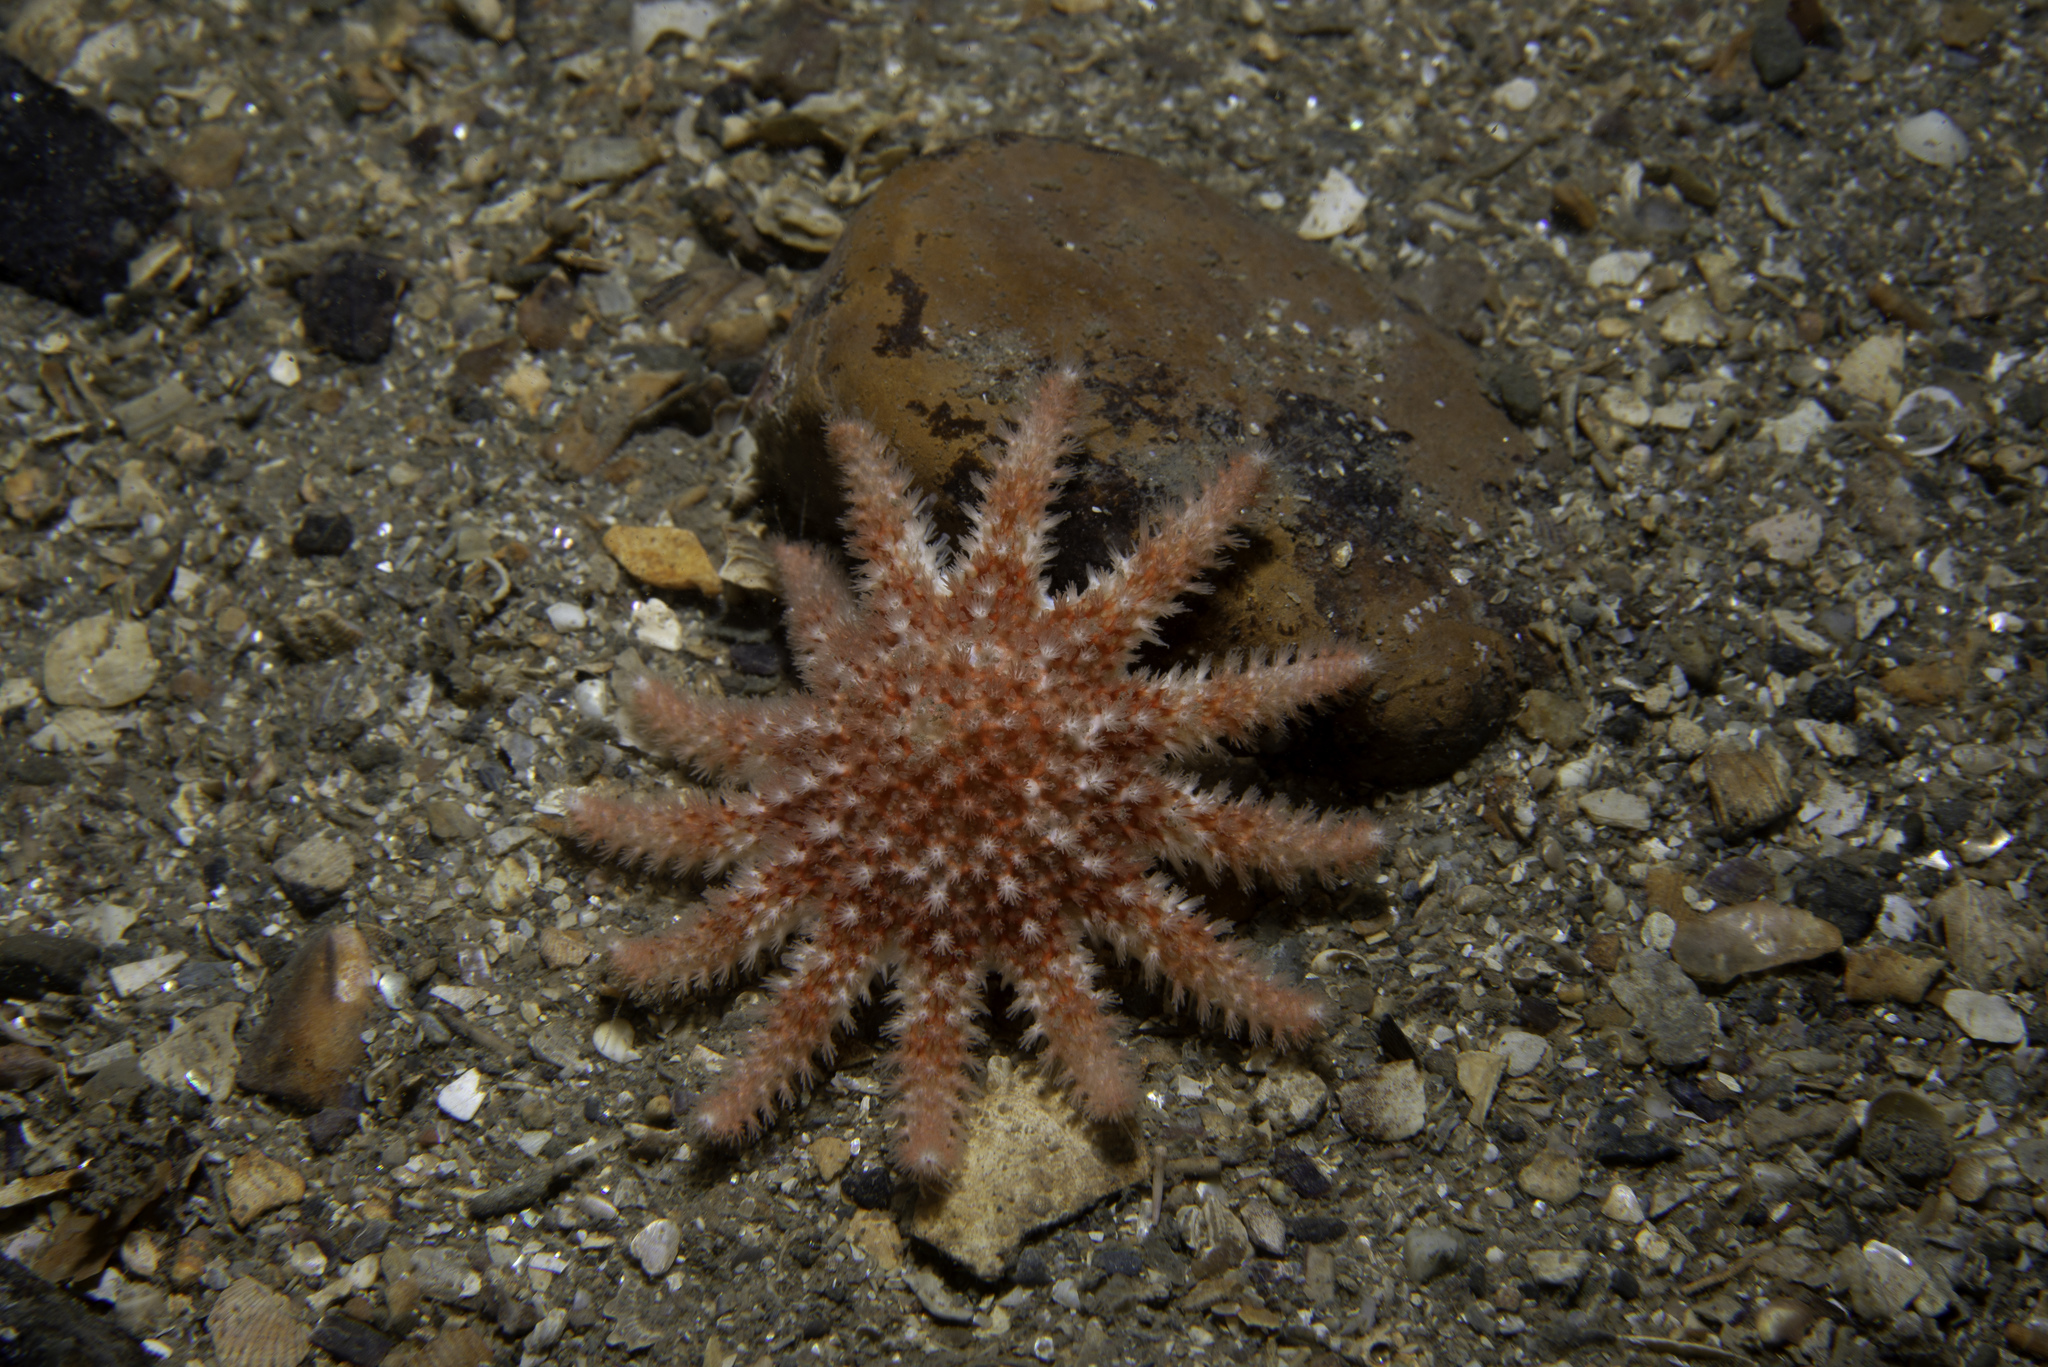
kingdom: Animalia
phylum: Echinodermata
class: Asteroidea
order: Valvatida
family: Solasteridae
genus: Crossaster
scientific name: Crossaster papposus
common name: Common sun star
